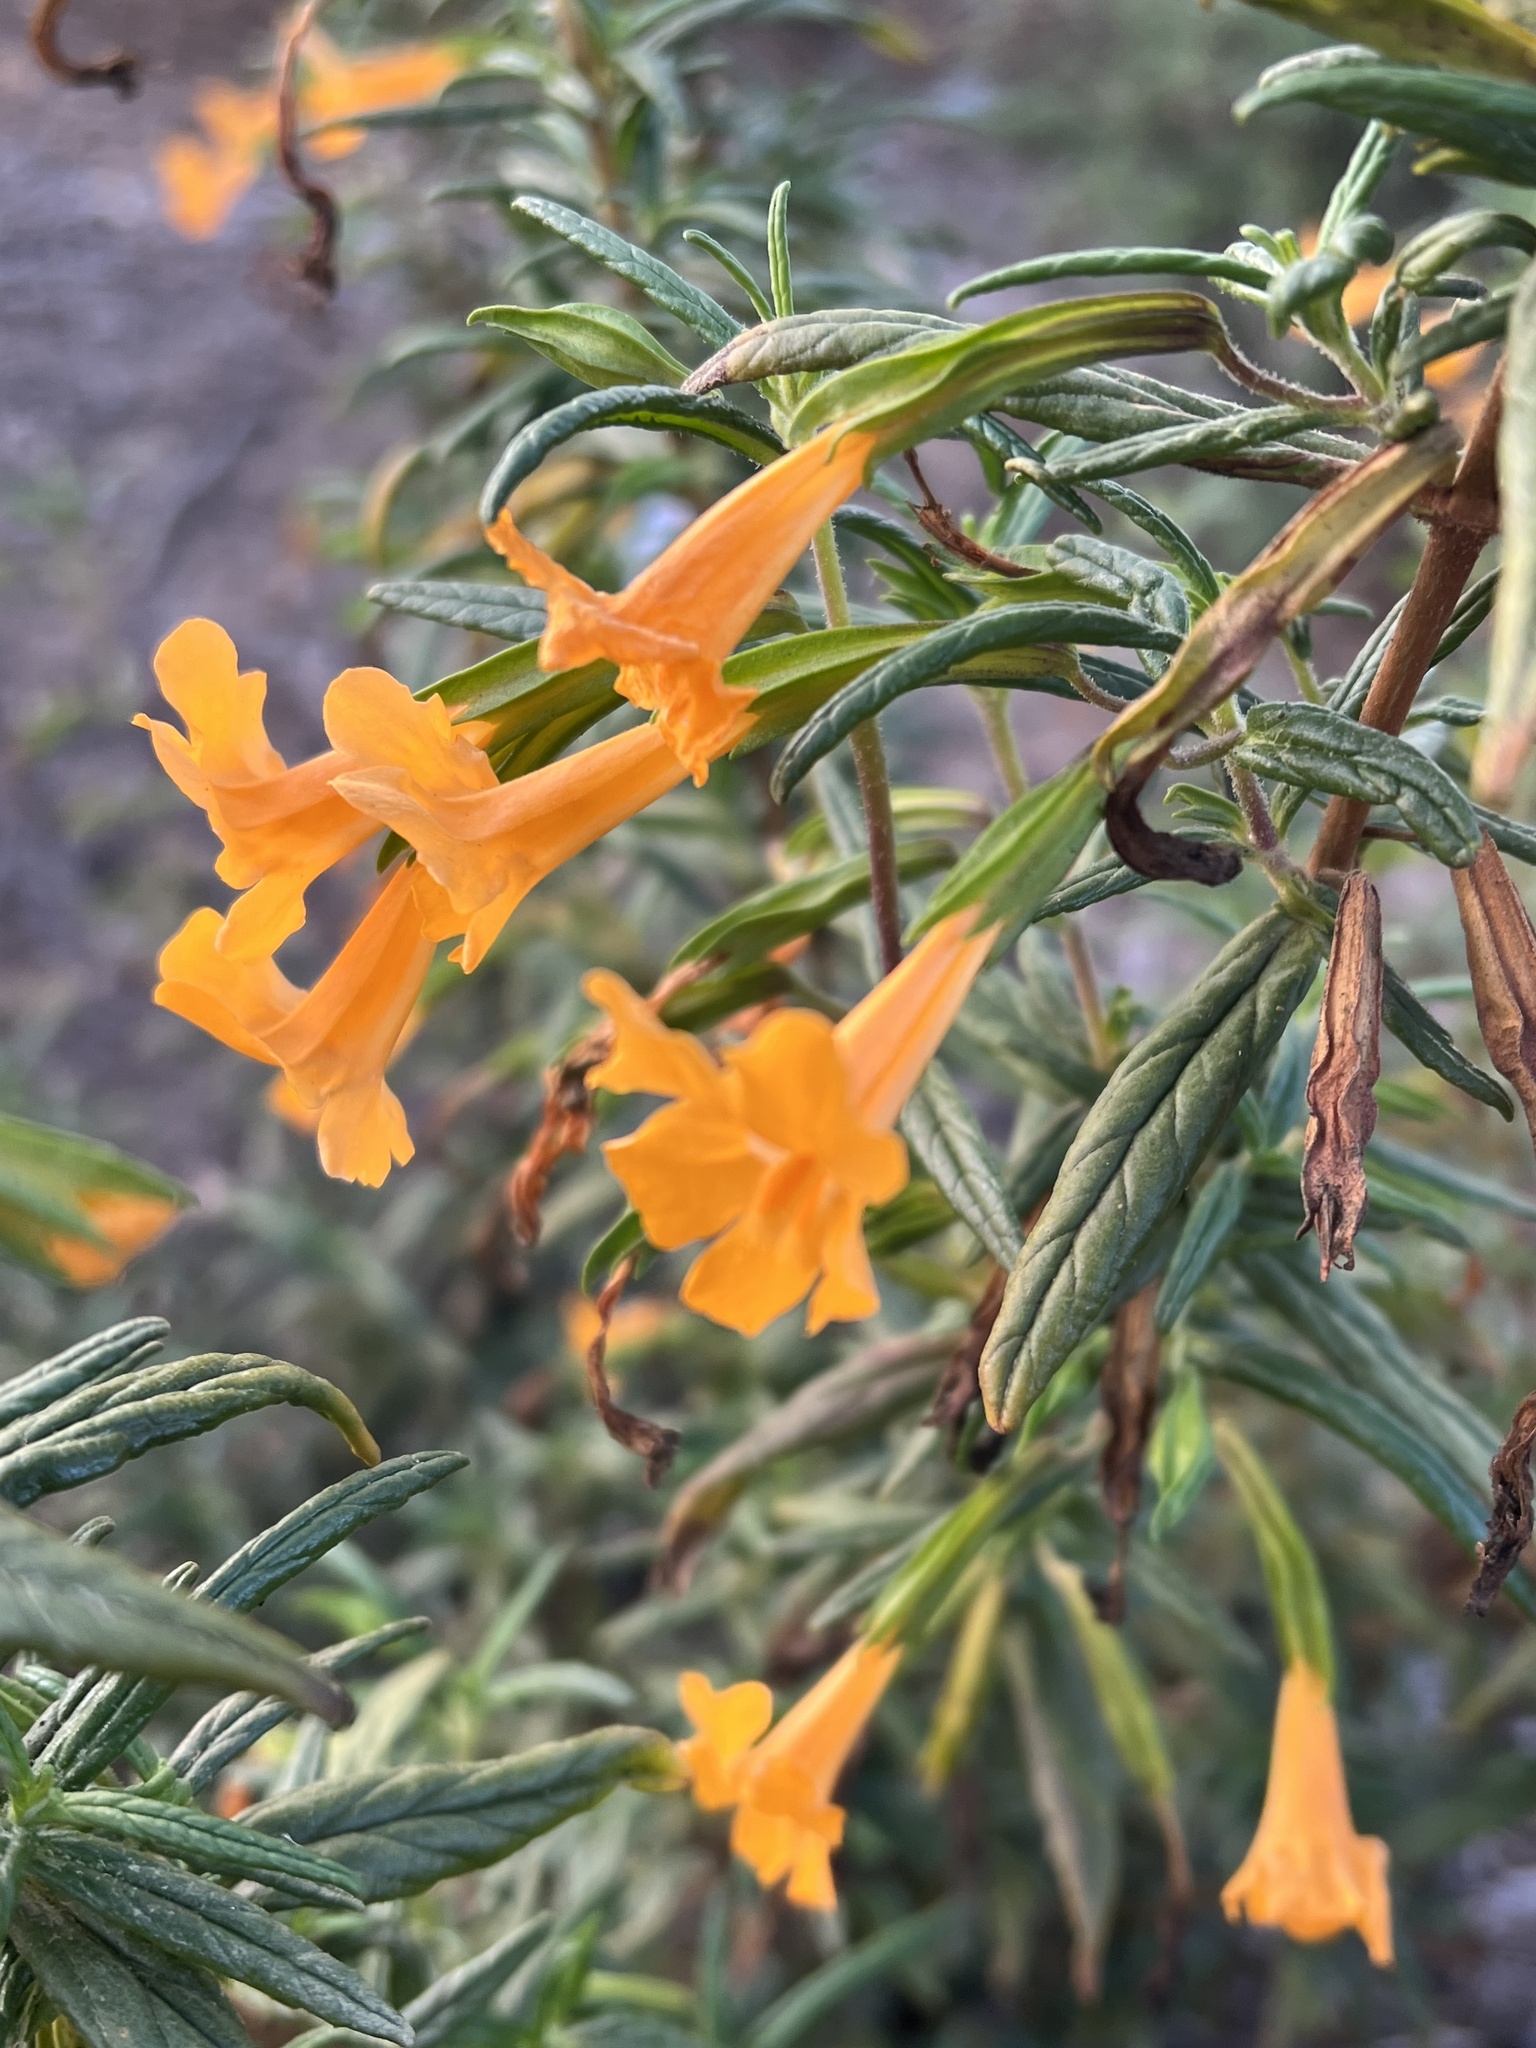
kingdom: Plantae
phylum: Tracheophyta
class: Magnoliopsida
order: Lamiales
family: Phrymaceae
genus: Diplacus
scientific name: Diplacus aurantiacus
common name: Bush monkey-flower
